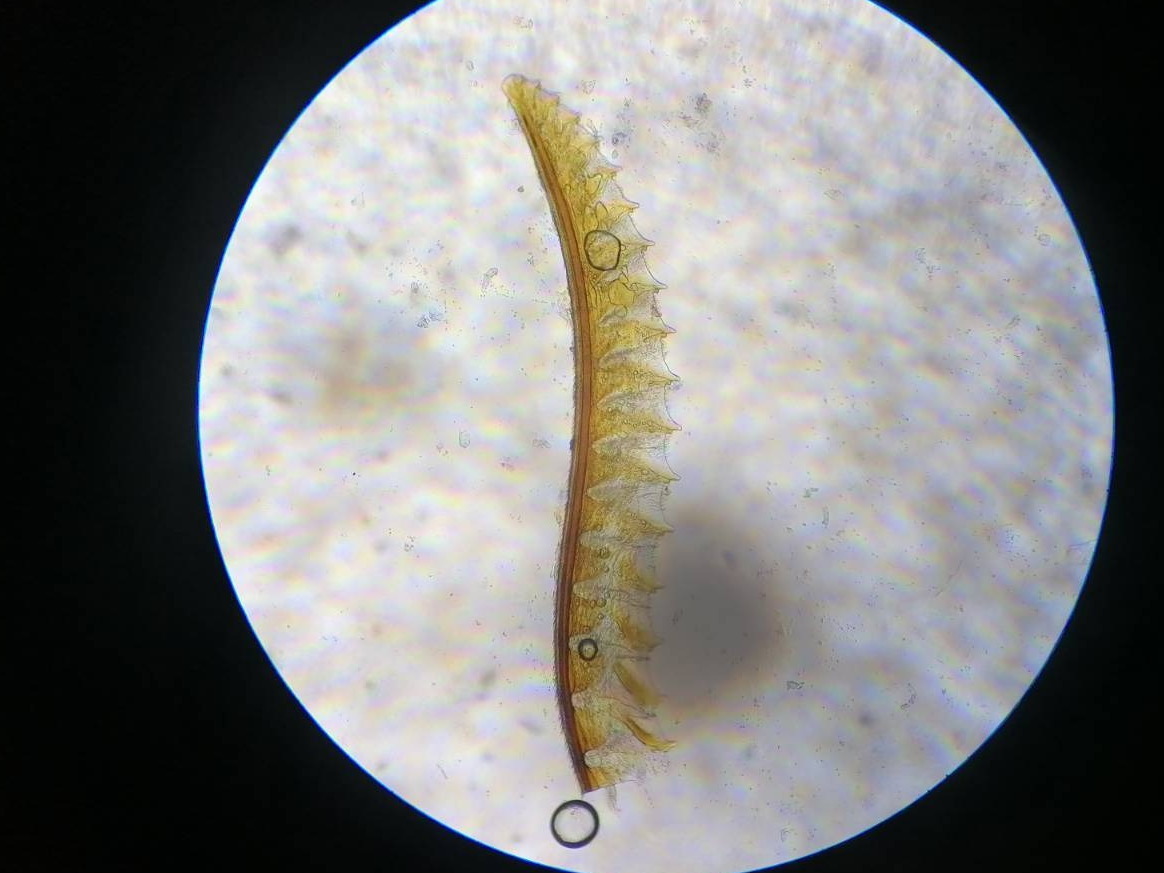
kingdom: Animalia
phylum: Arthropoda
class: Insecta
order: Hymenoptera
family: Tenthredinidae
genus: Tenthredo
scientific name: Tenthredo brevicornis
